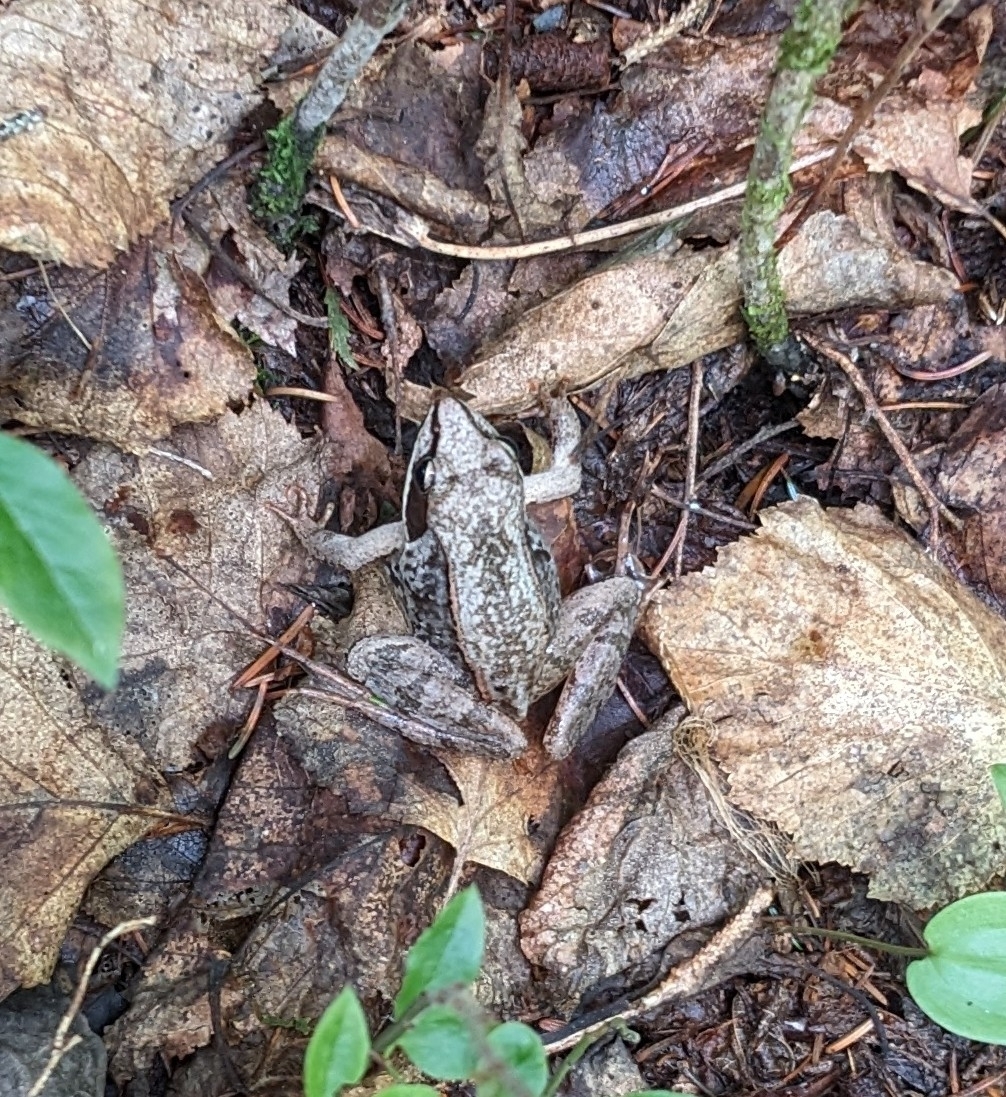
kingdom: Animalia
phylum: Chordata
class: Amphibia
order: Anura
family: Ranidae
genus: Lithobates
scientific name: Lithobates sylvaticus
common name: Wood frog
